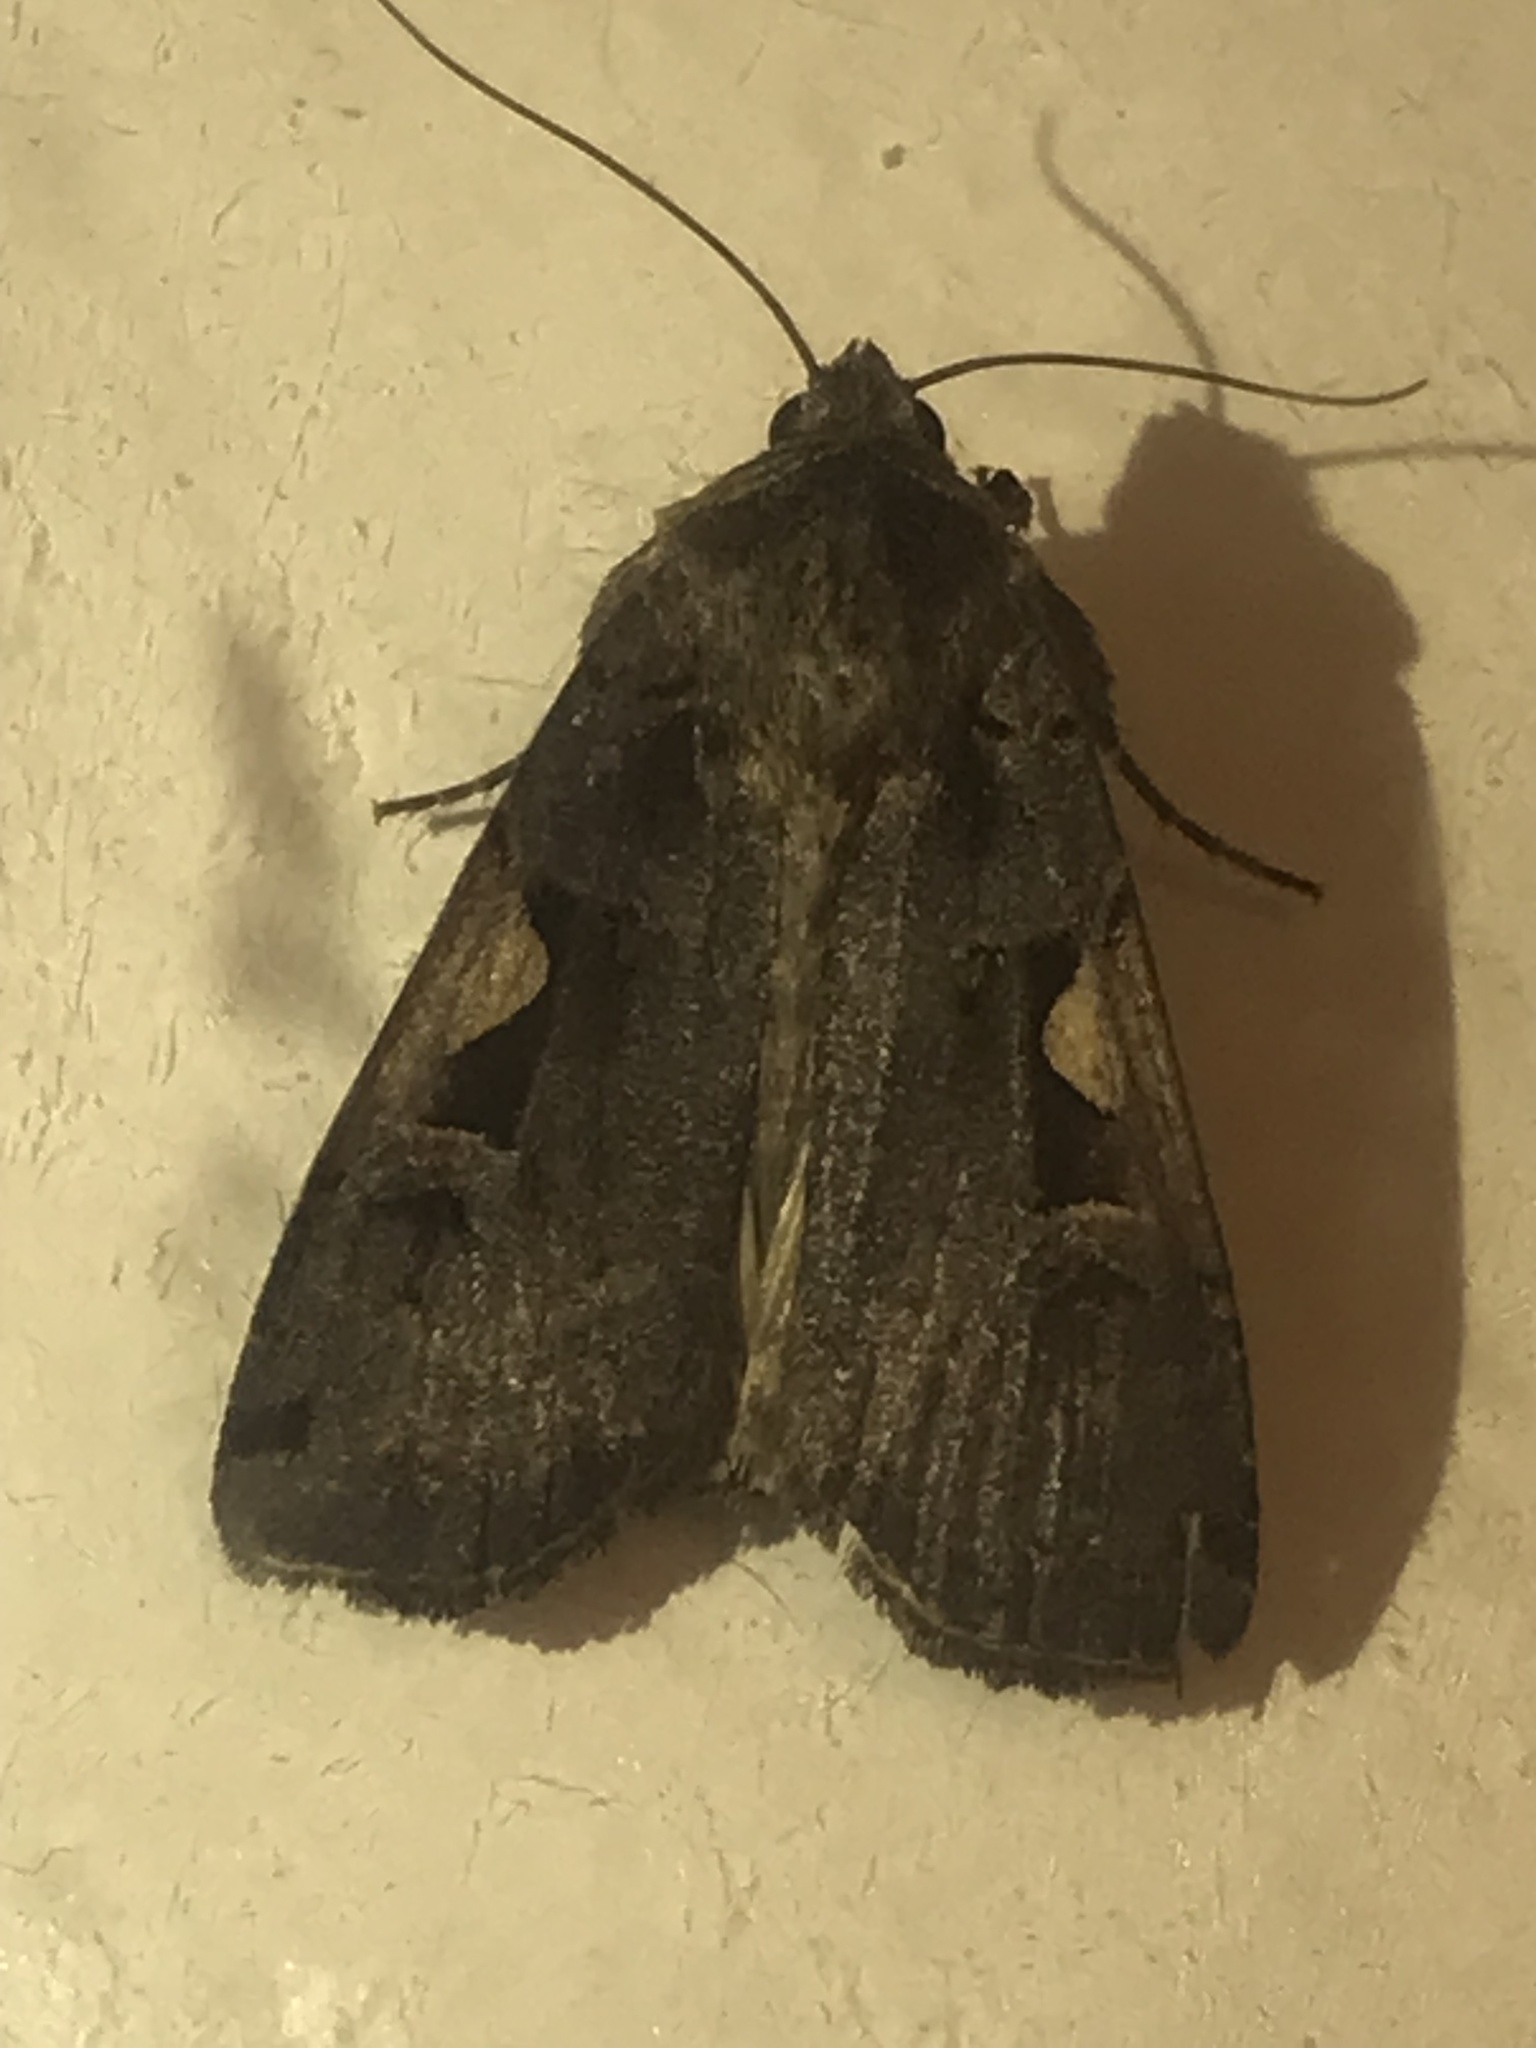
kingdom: Animalia
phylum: Arthropoda
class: Insecta
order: Lepidoptera
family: Noctuidae
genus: Xestia
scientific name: Xestia c-nigrum
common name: Setaceous hebrew character
